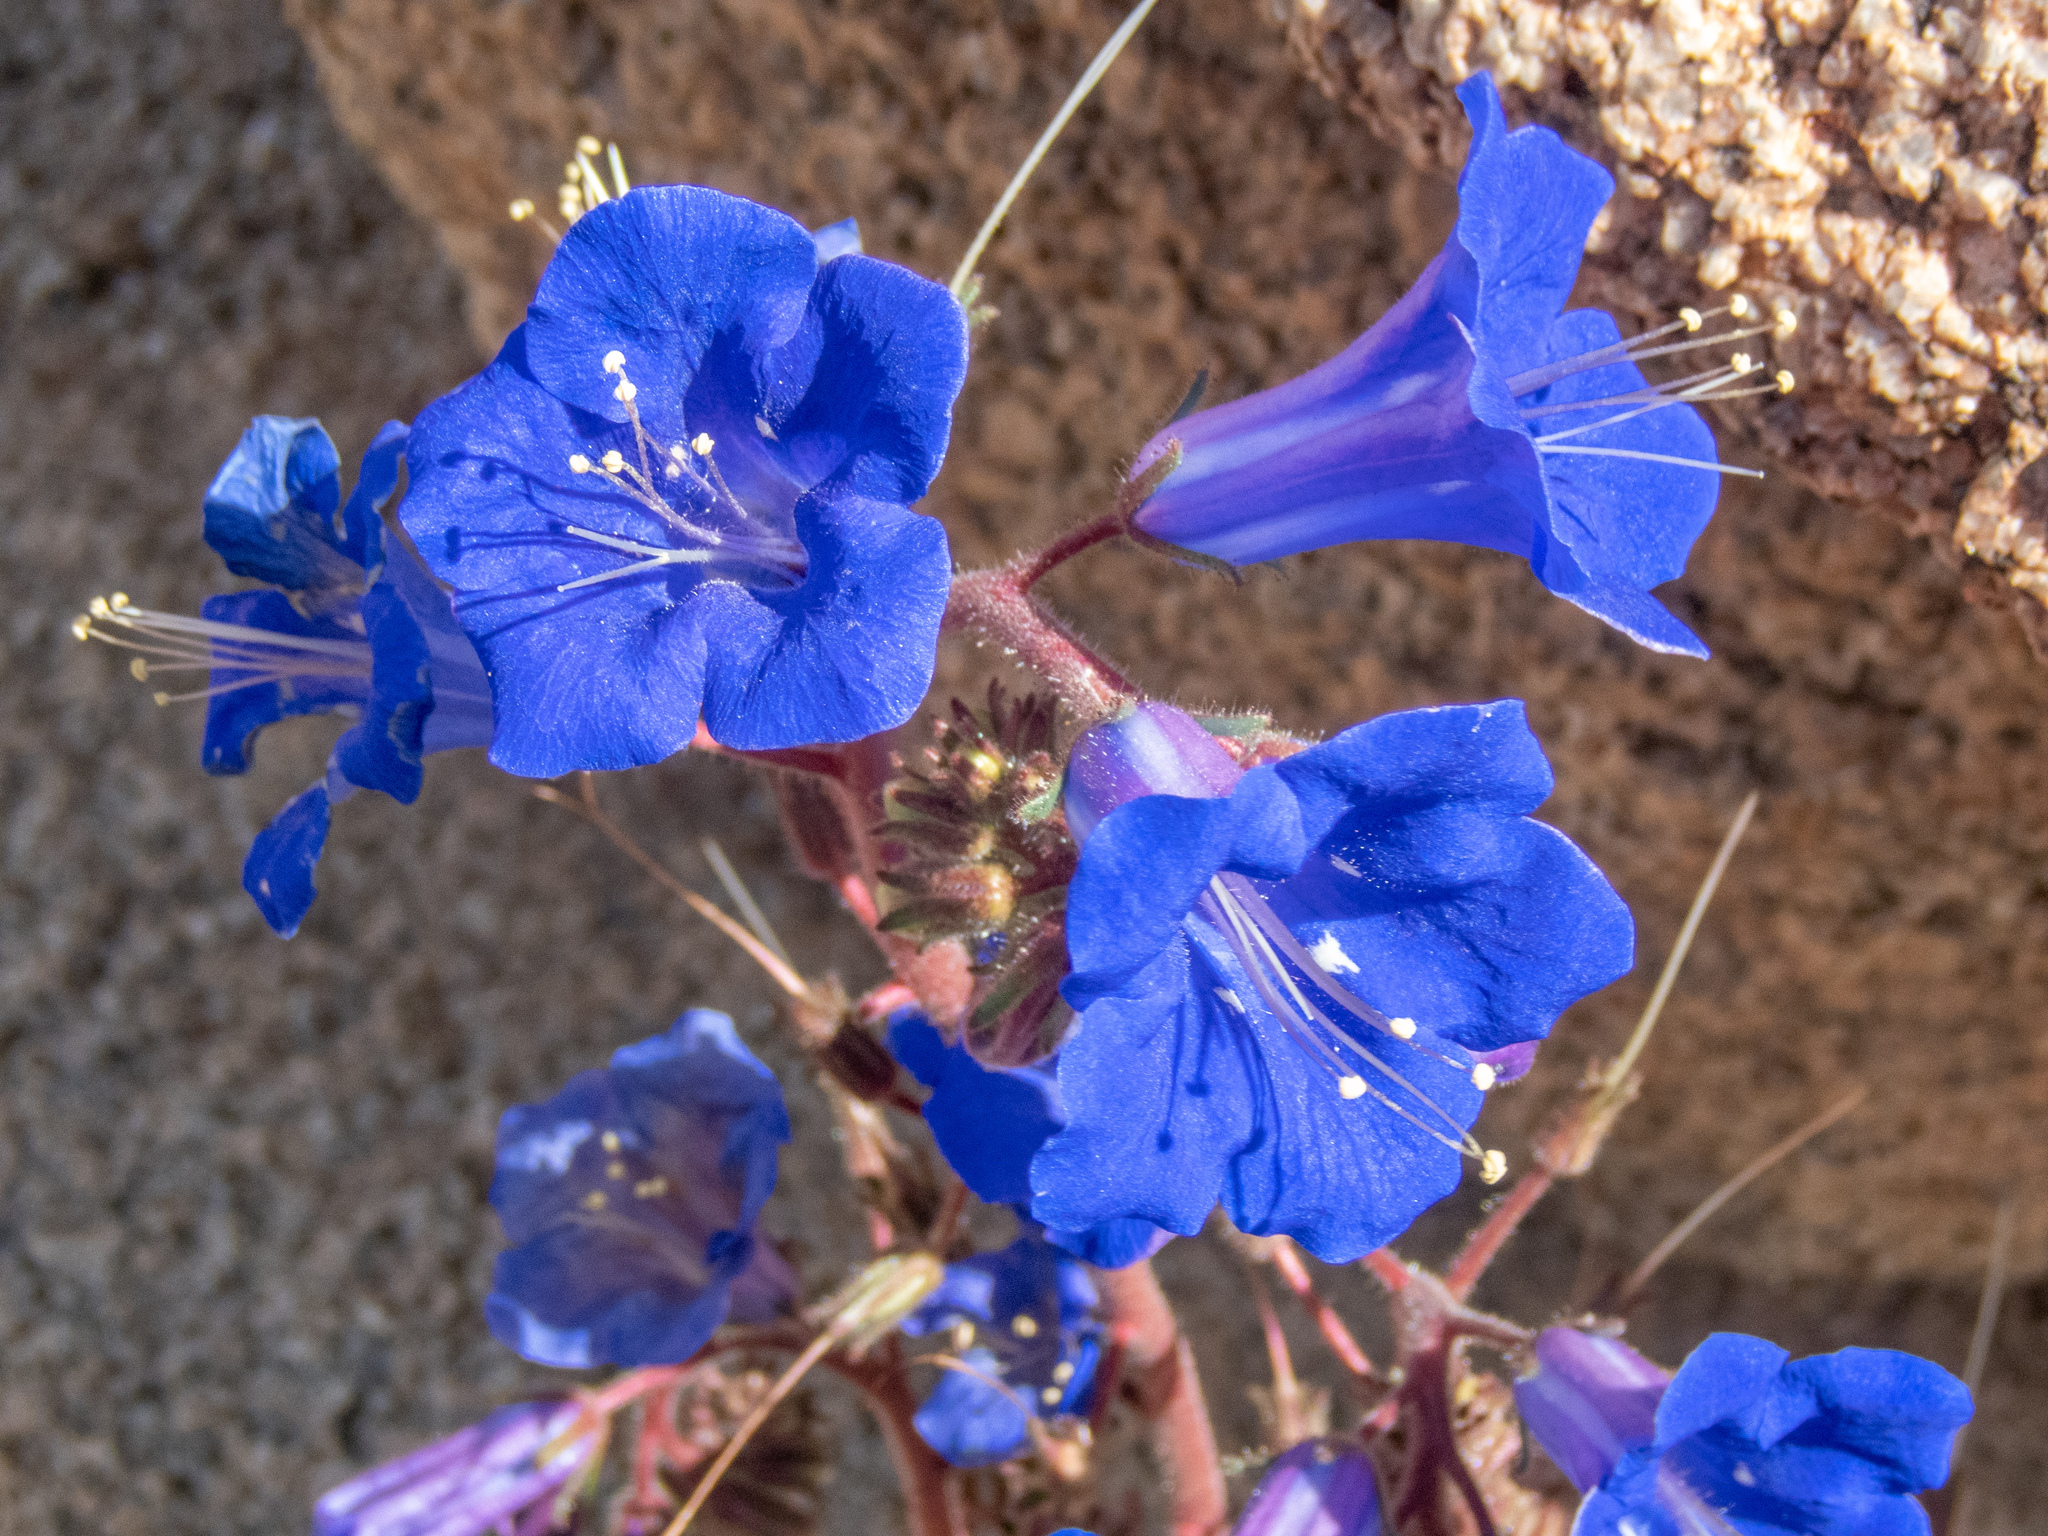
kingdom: Plantae
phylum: Tracheophyta
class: Magnoliopsida
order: Boraginales
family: Hydrophyllaceae
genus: Phacelia
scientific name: Phacelia campanularia
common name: California bluebell
